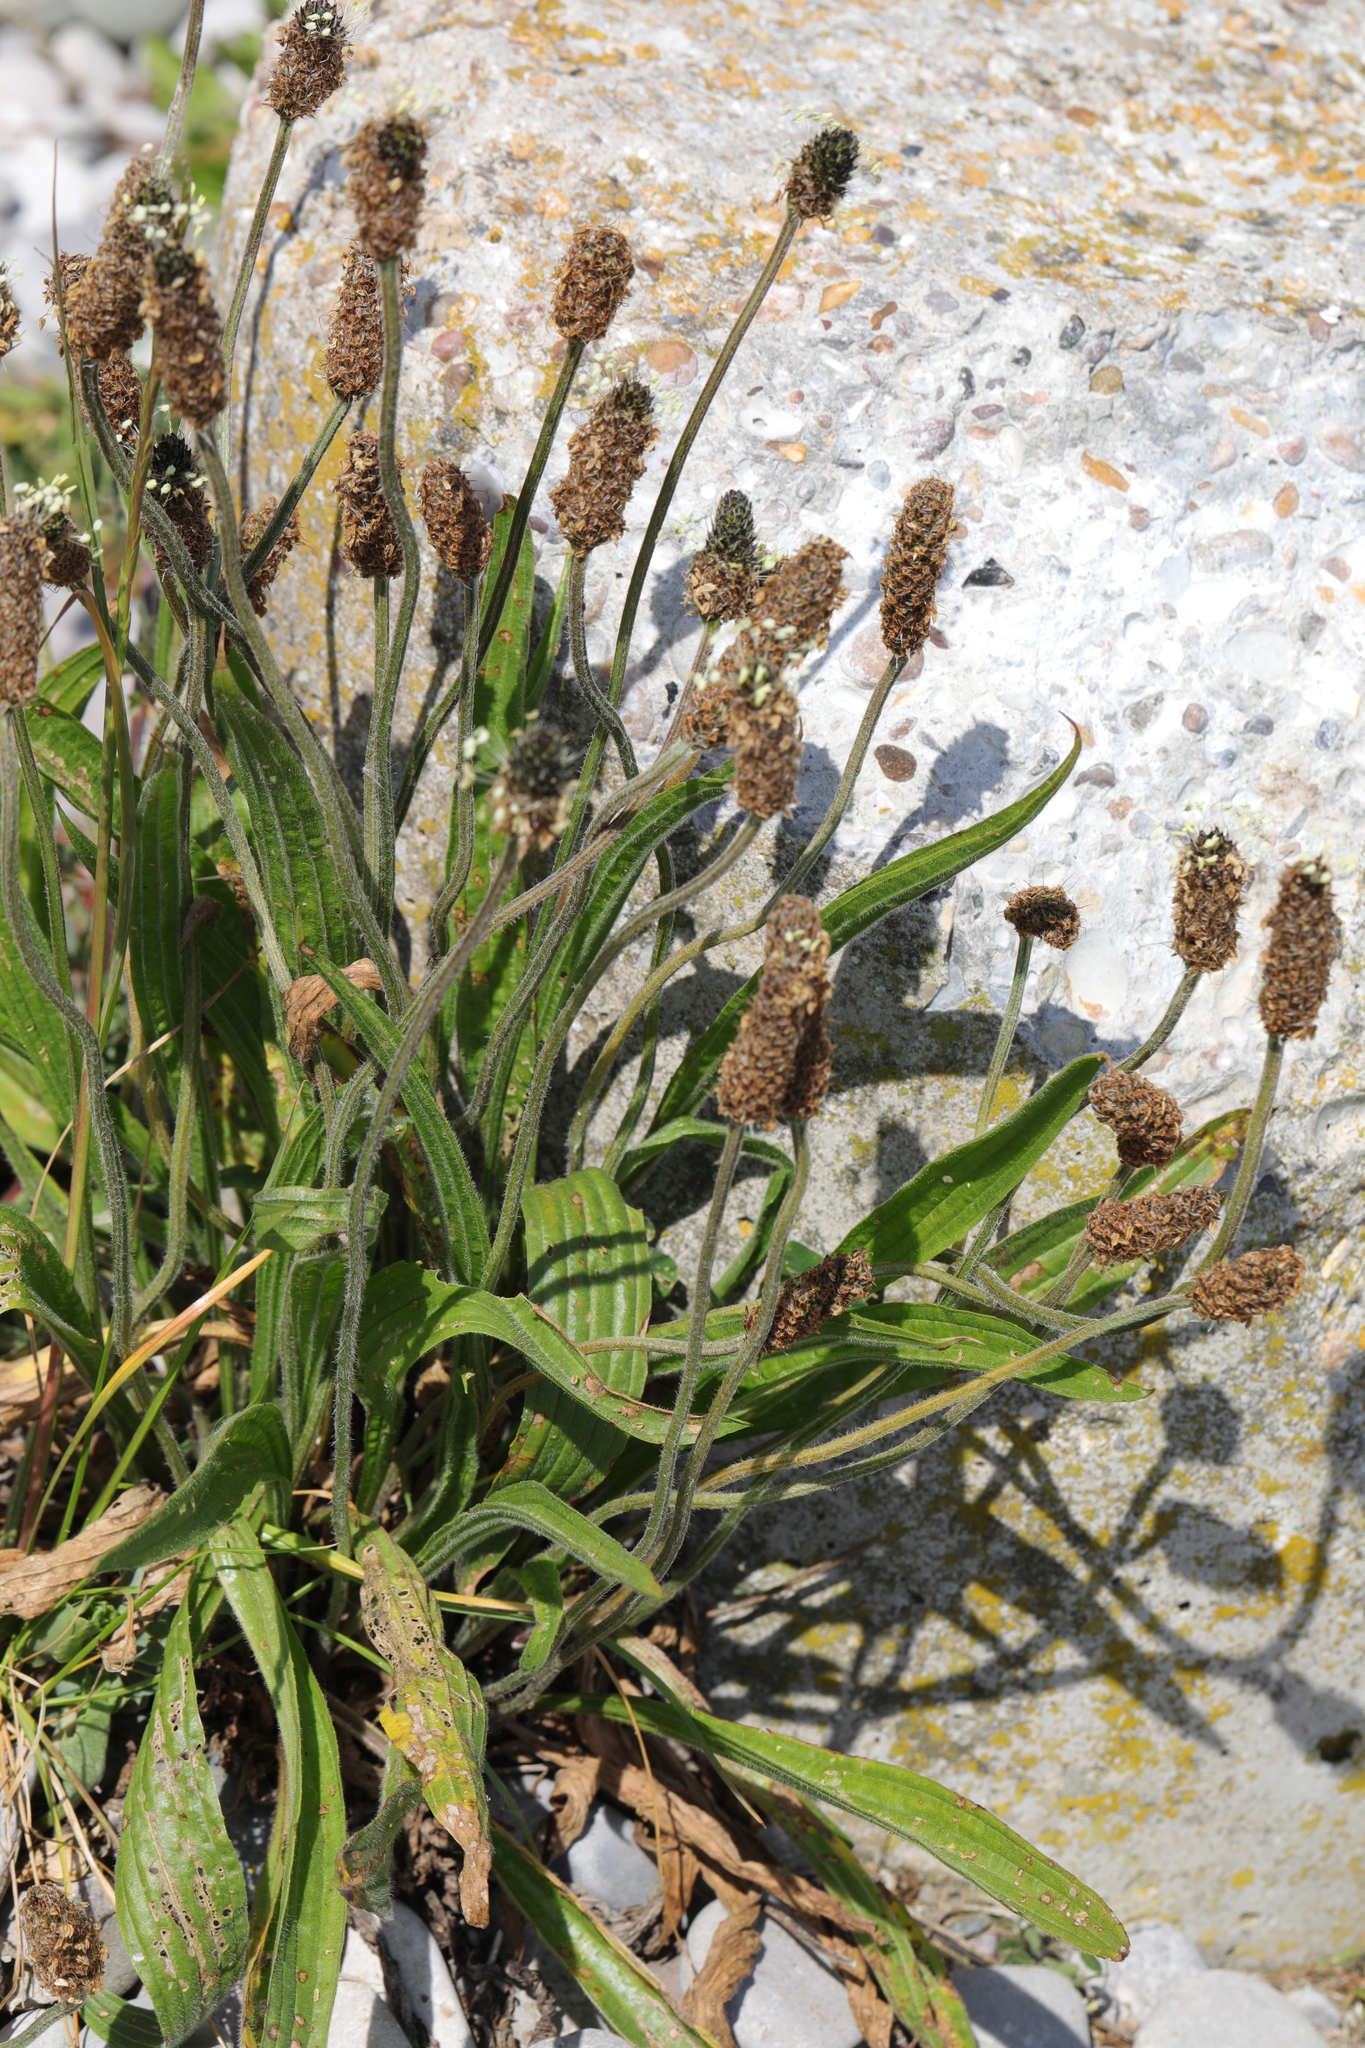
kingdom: Plantae
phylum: Tracheophyta
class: Magnoliopsida
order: Lamiales
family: Plantaginaceae
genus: Plantago
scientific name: Plantago lanceolata
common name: Ribwort plantain
